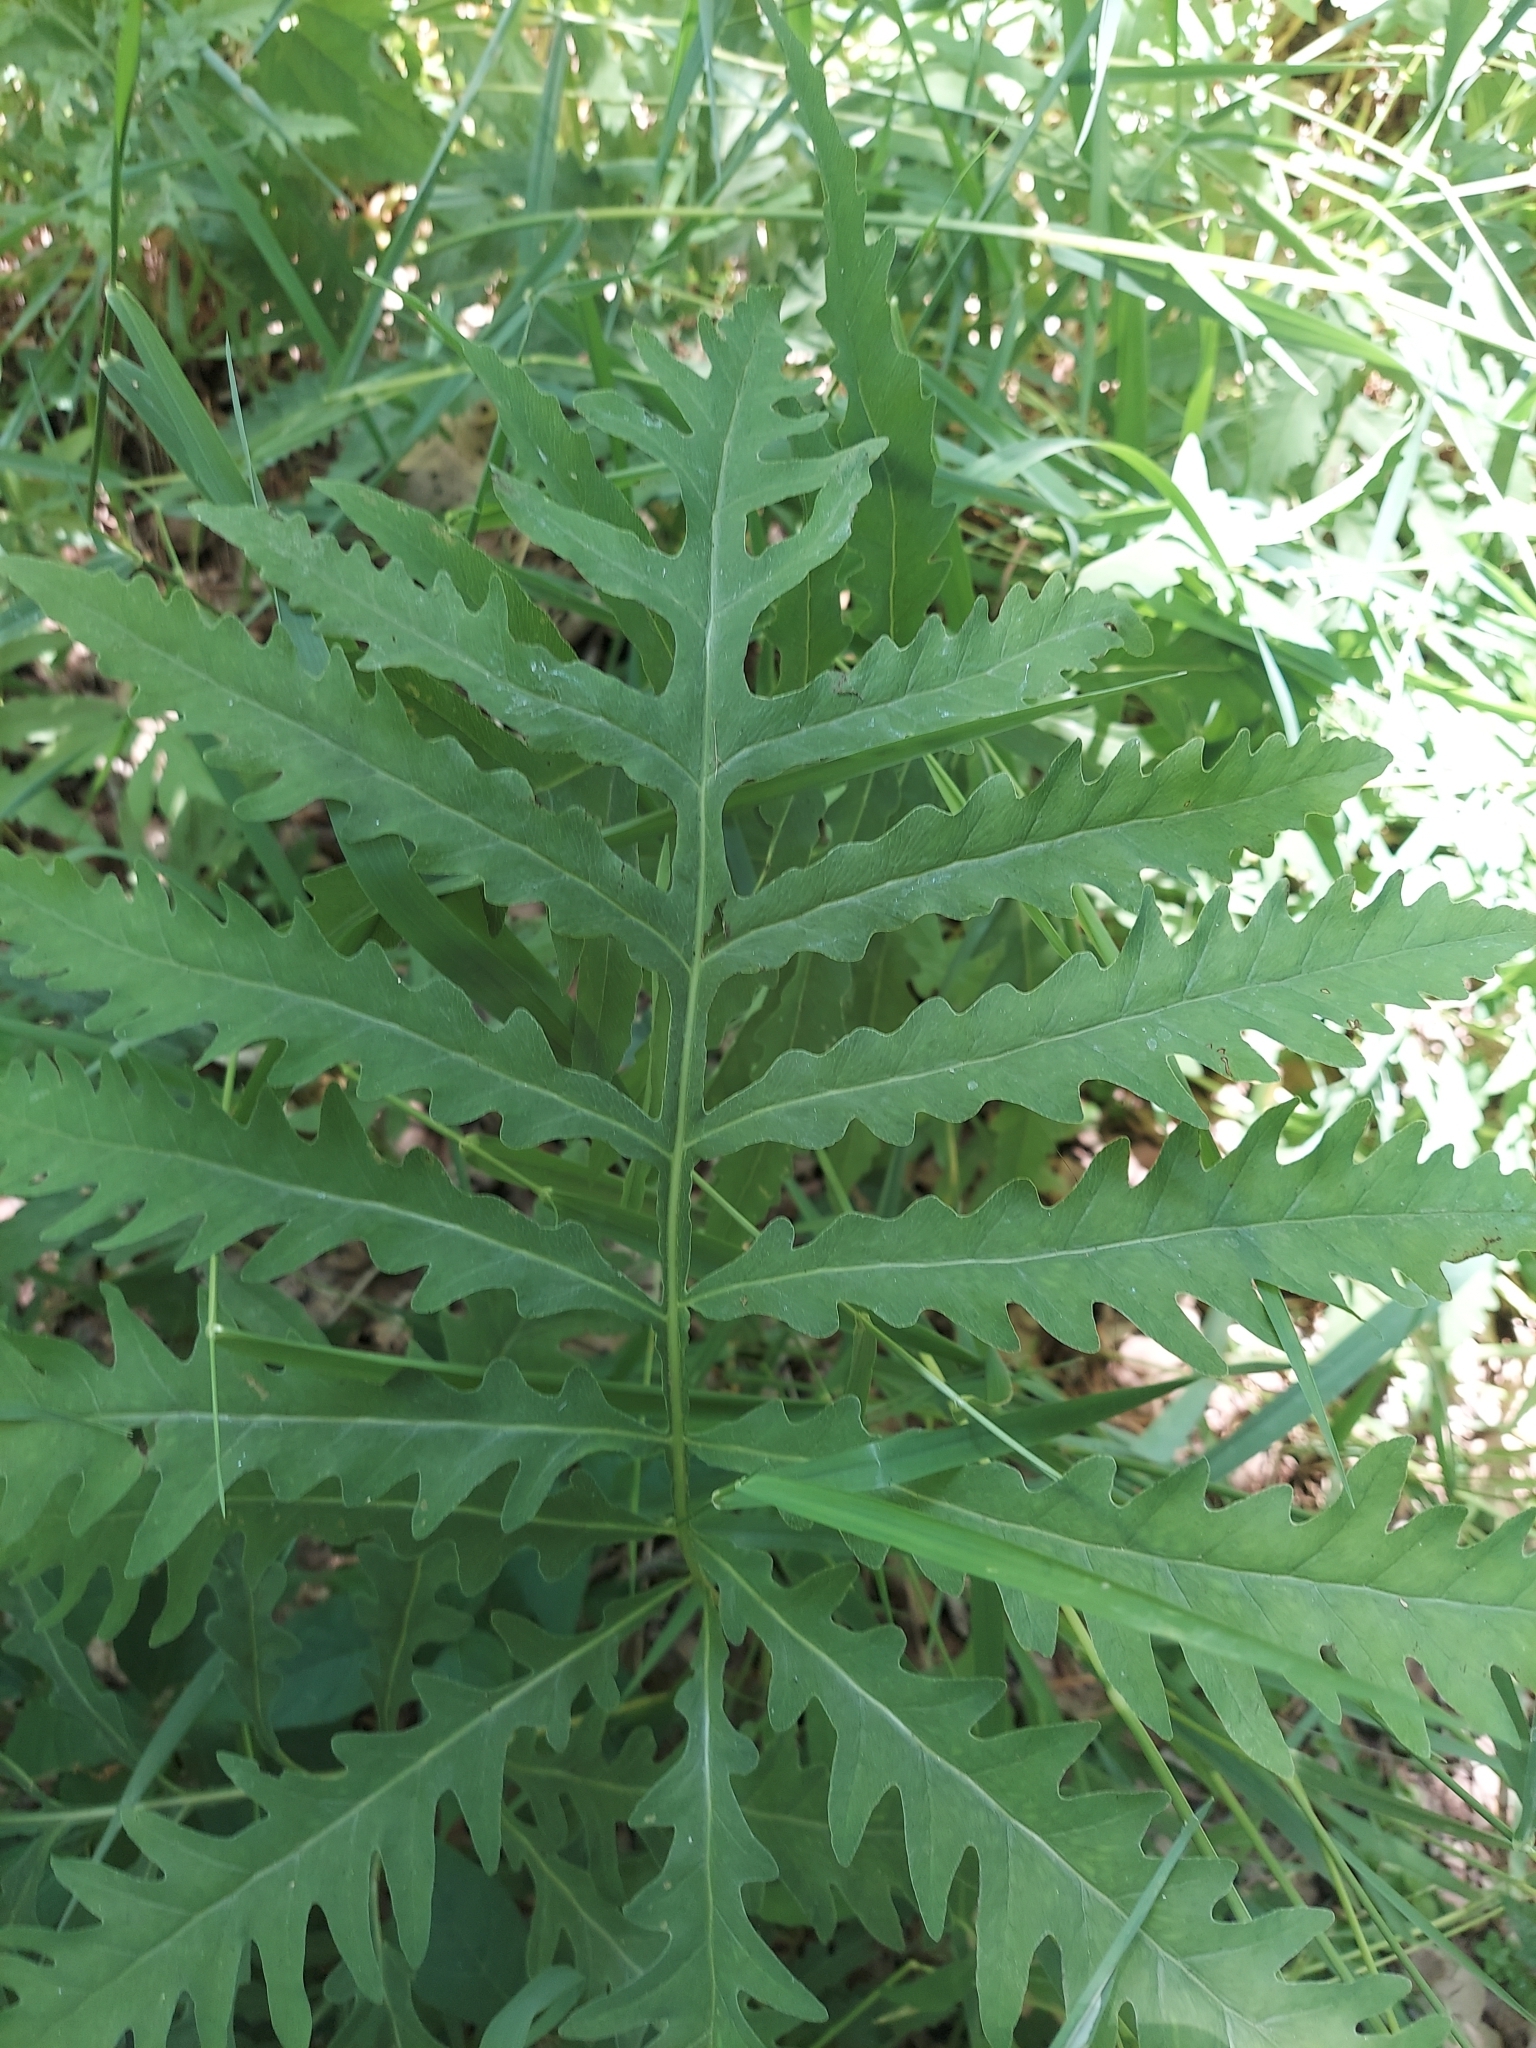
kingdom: Plantae
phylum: Tracheophyta
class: Polypodiopsida
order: Polypodiales
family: Onocleaceae
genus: Onoclea
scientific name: Onoclea sensibilis
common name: Sensitive fern
